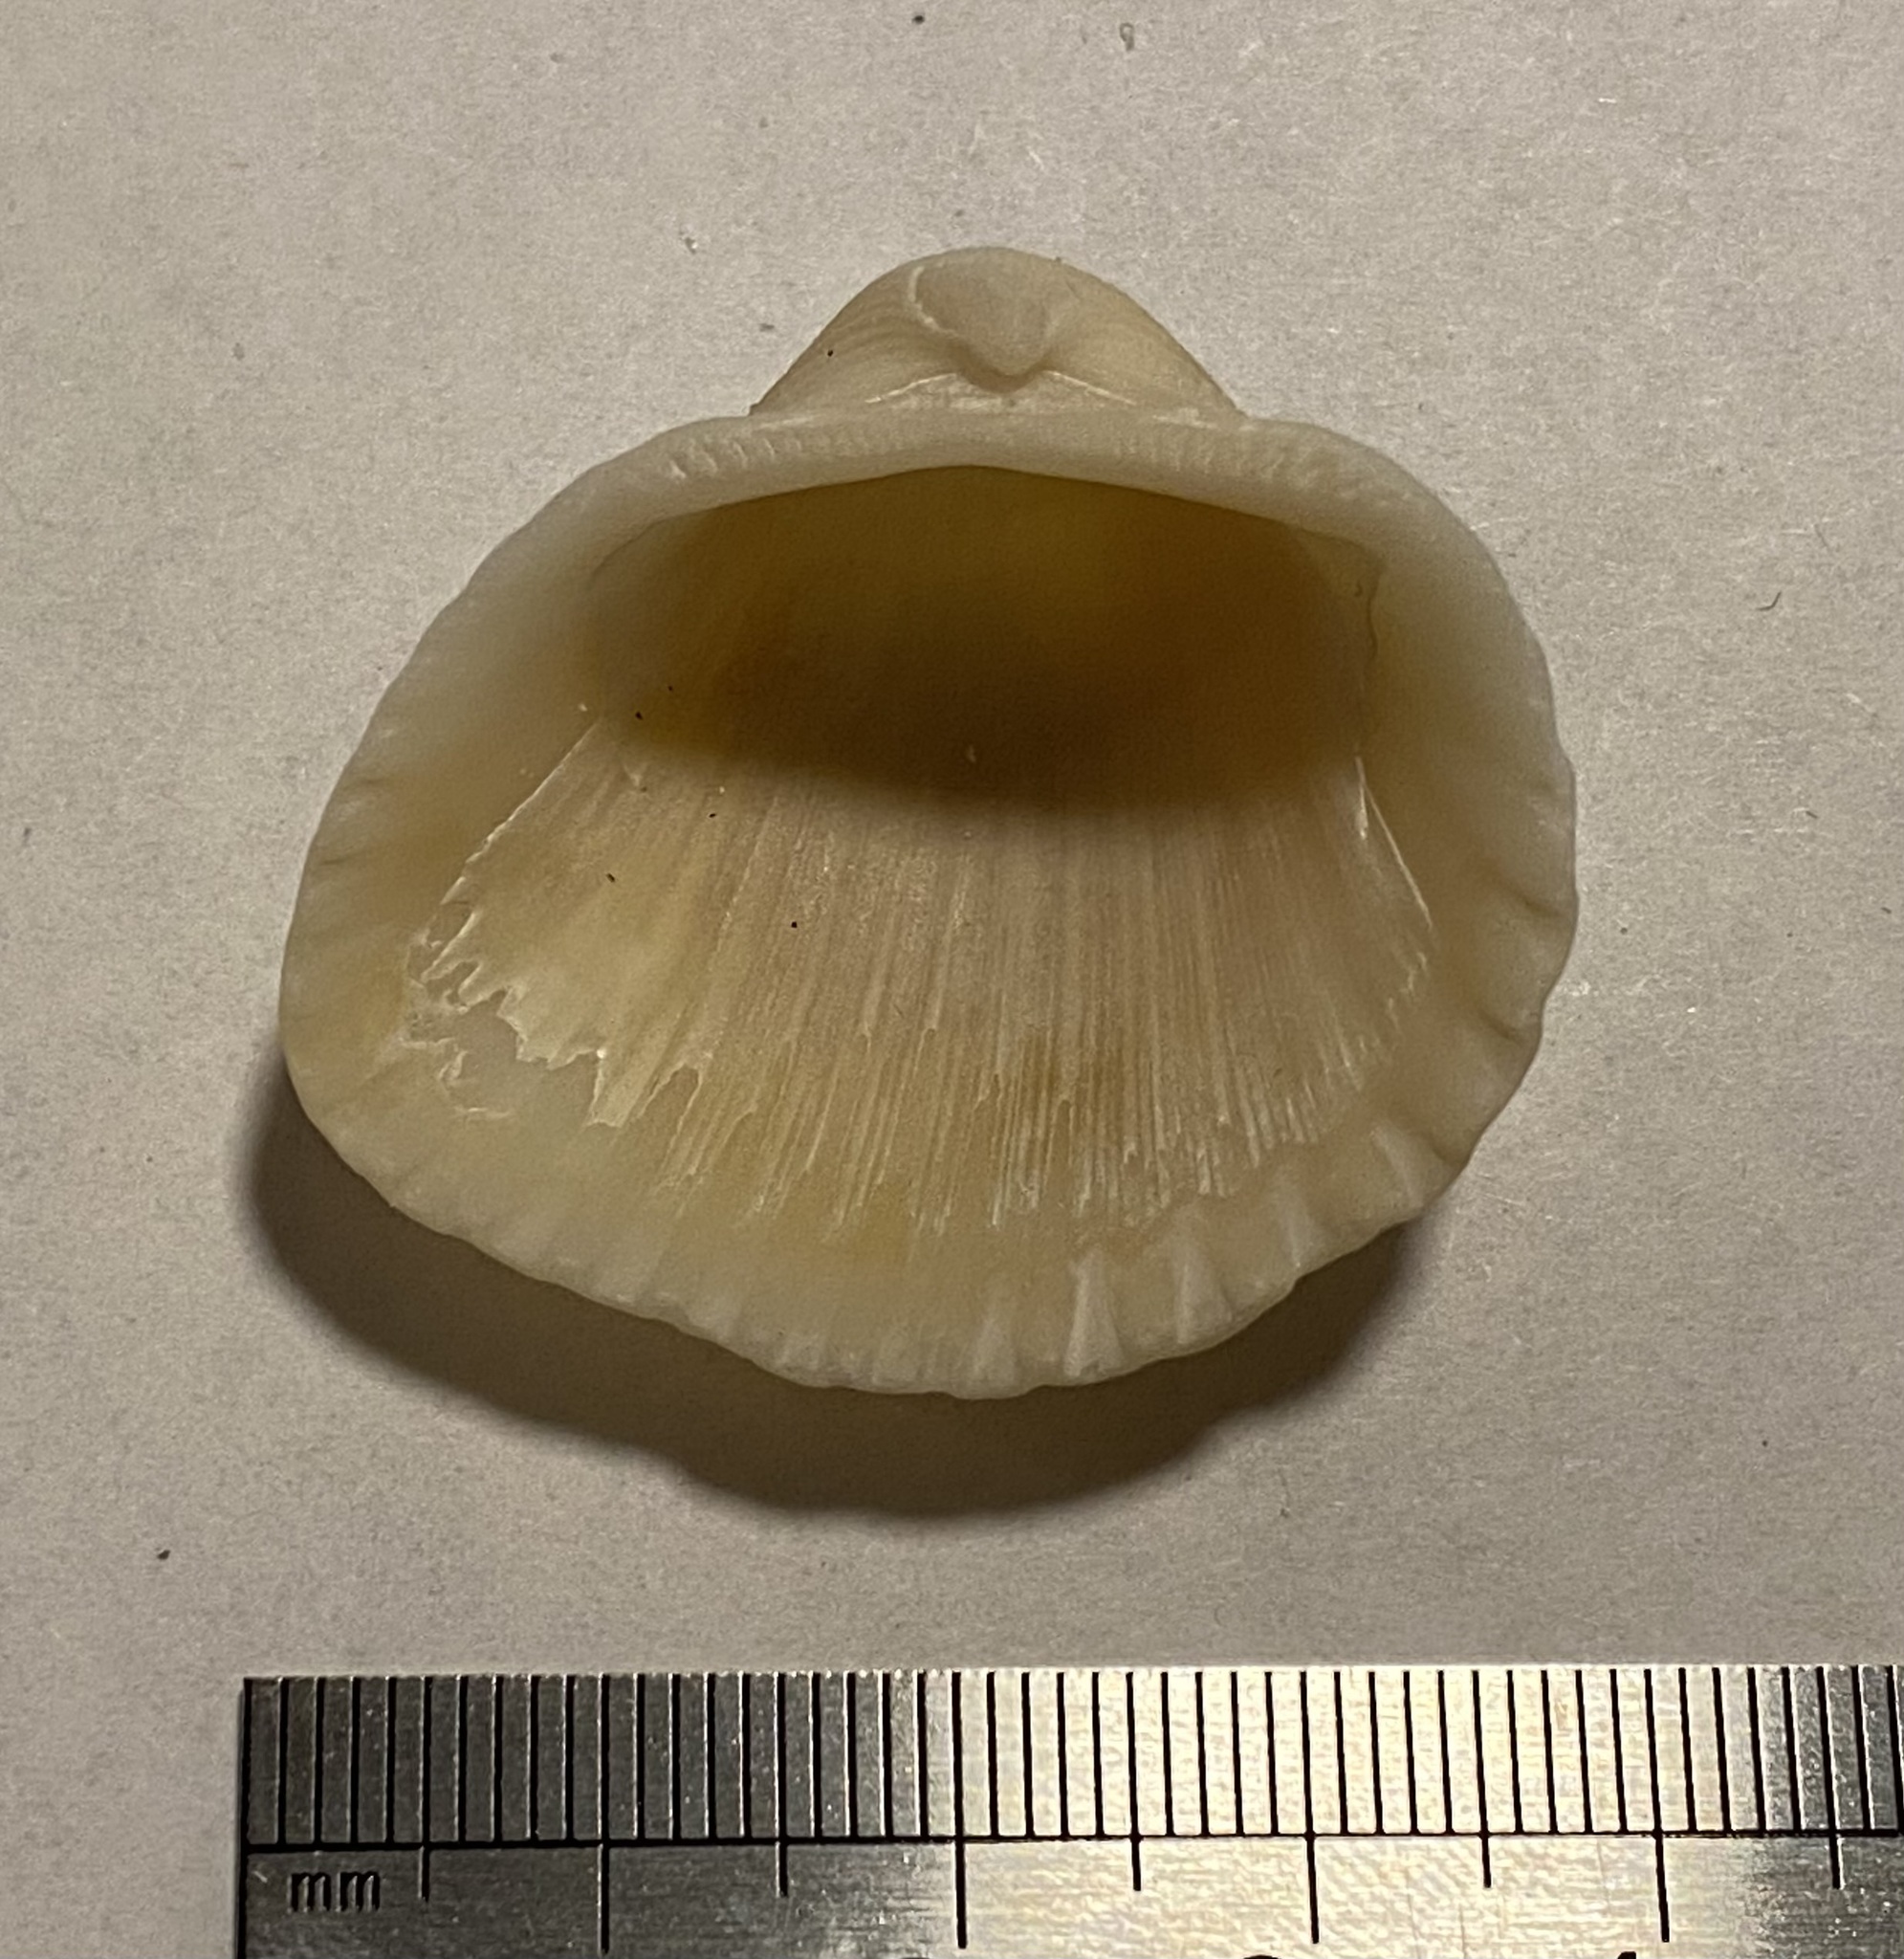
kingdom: Animalia
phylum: Mollusca
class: Bivalvia
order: Arcida
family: Arcidae
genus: Anadara
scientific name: Anadara brasiliana
